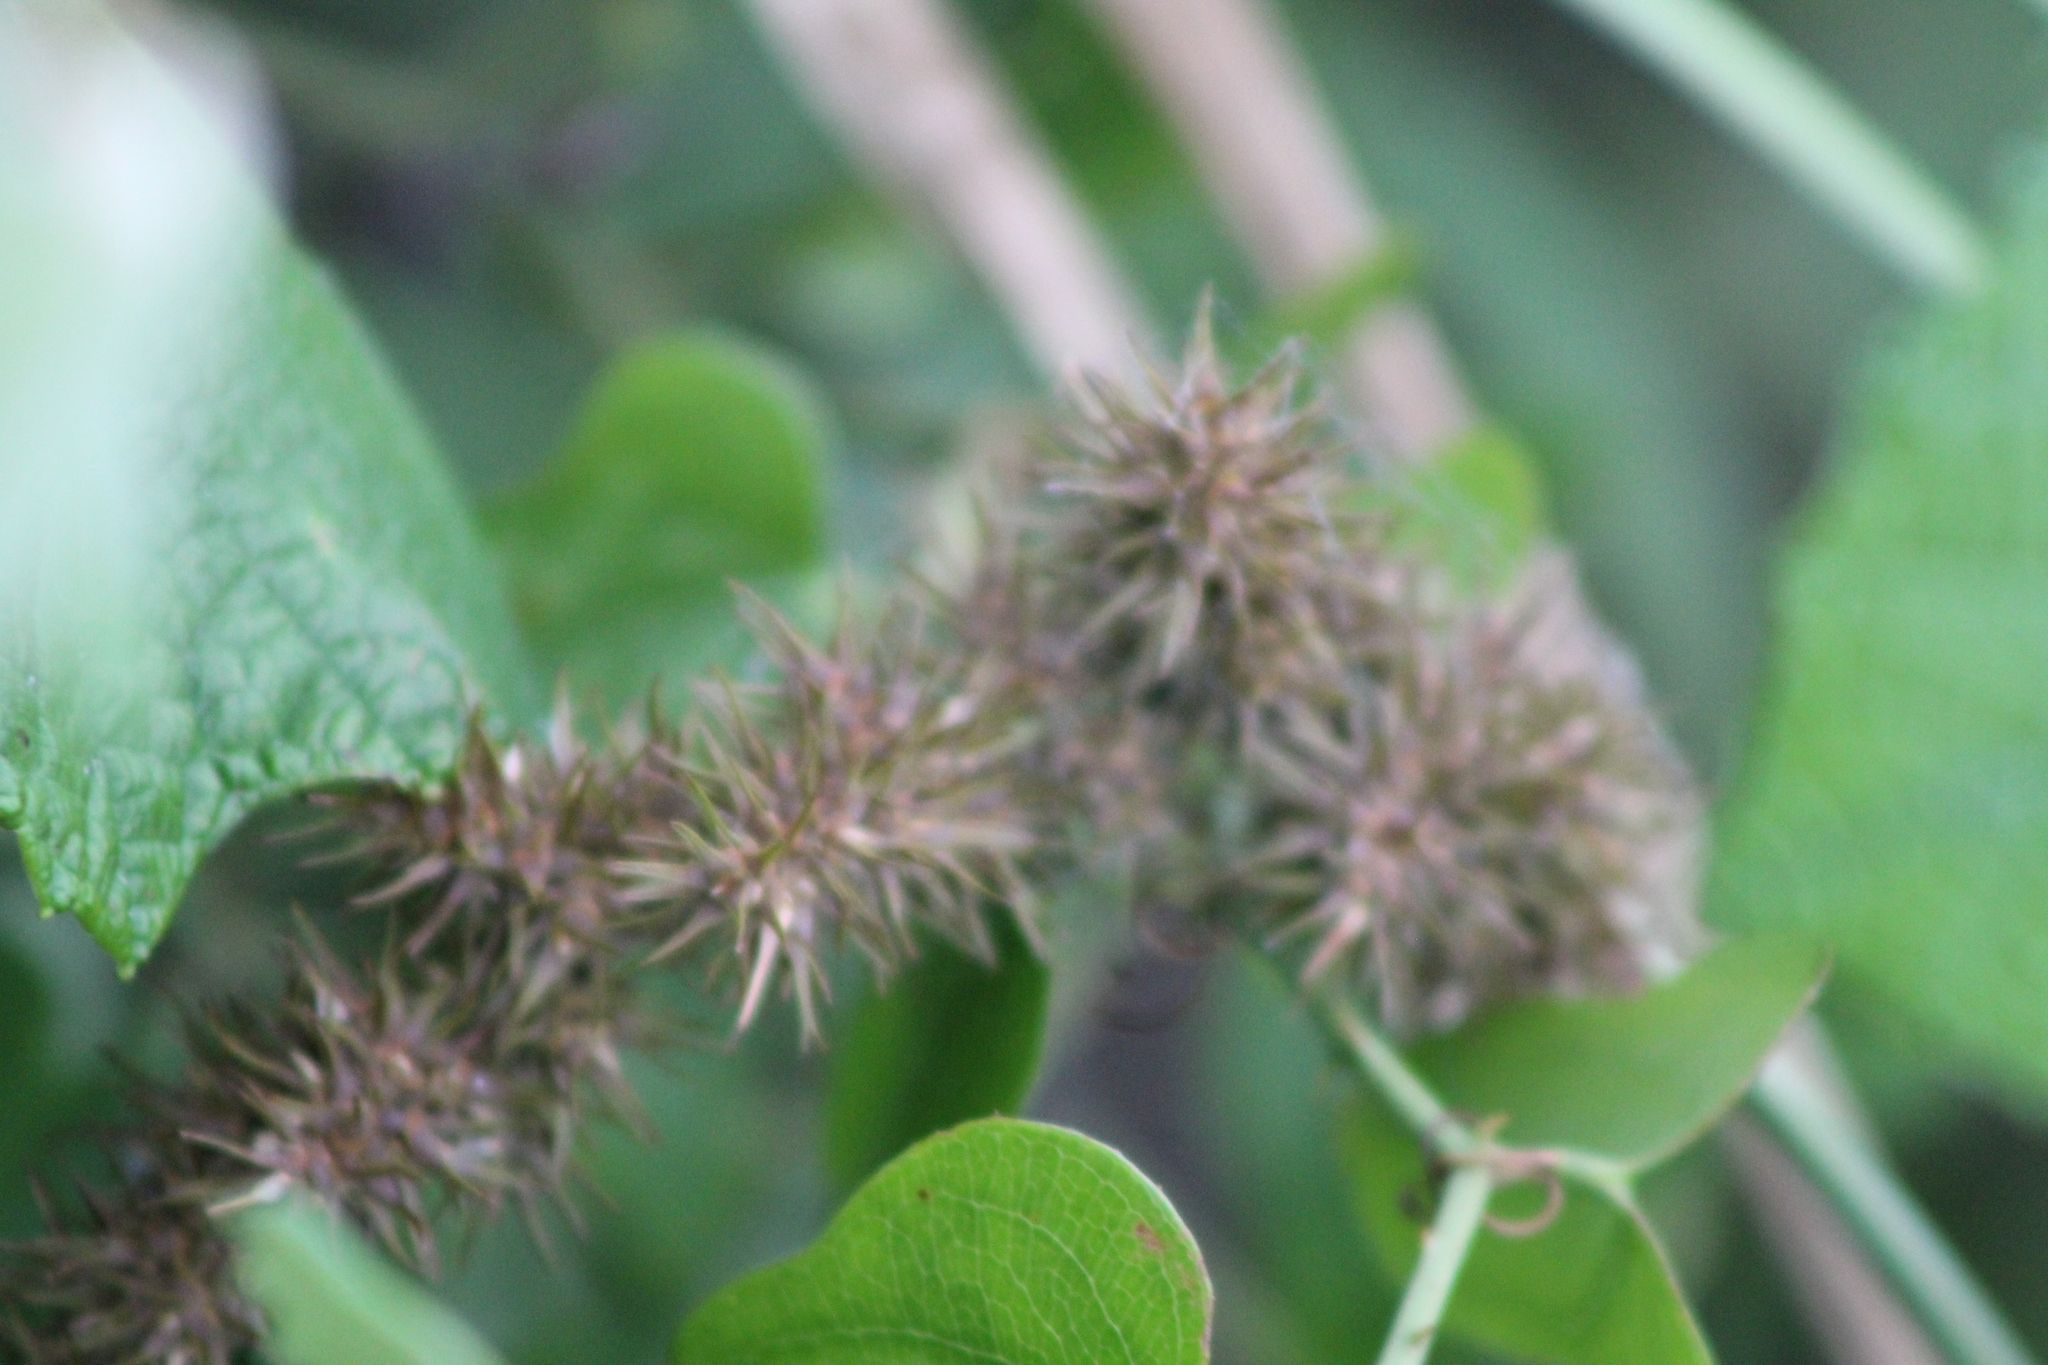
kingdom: Plantae
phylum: Tracheophyta
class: Liliopsida
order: Poales
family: Cyperaceae
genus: Carex
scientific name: Carex crus-corvi
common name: Crow-spur sedge
